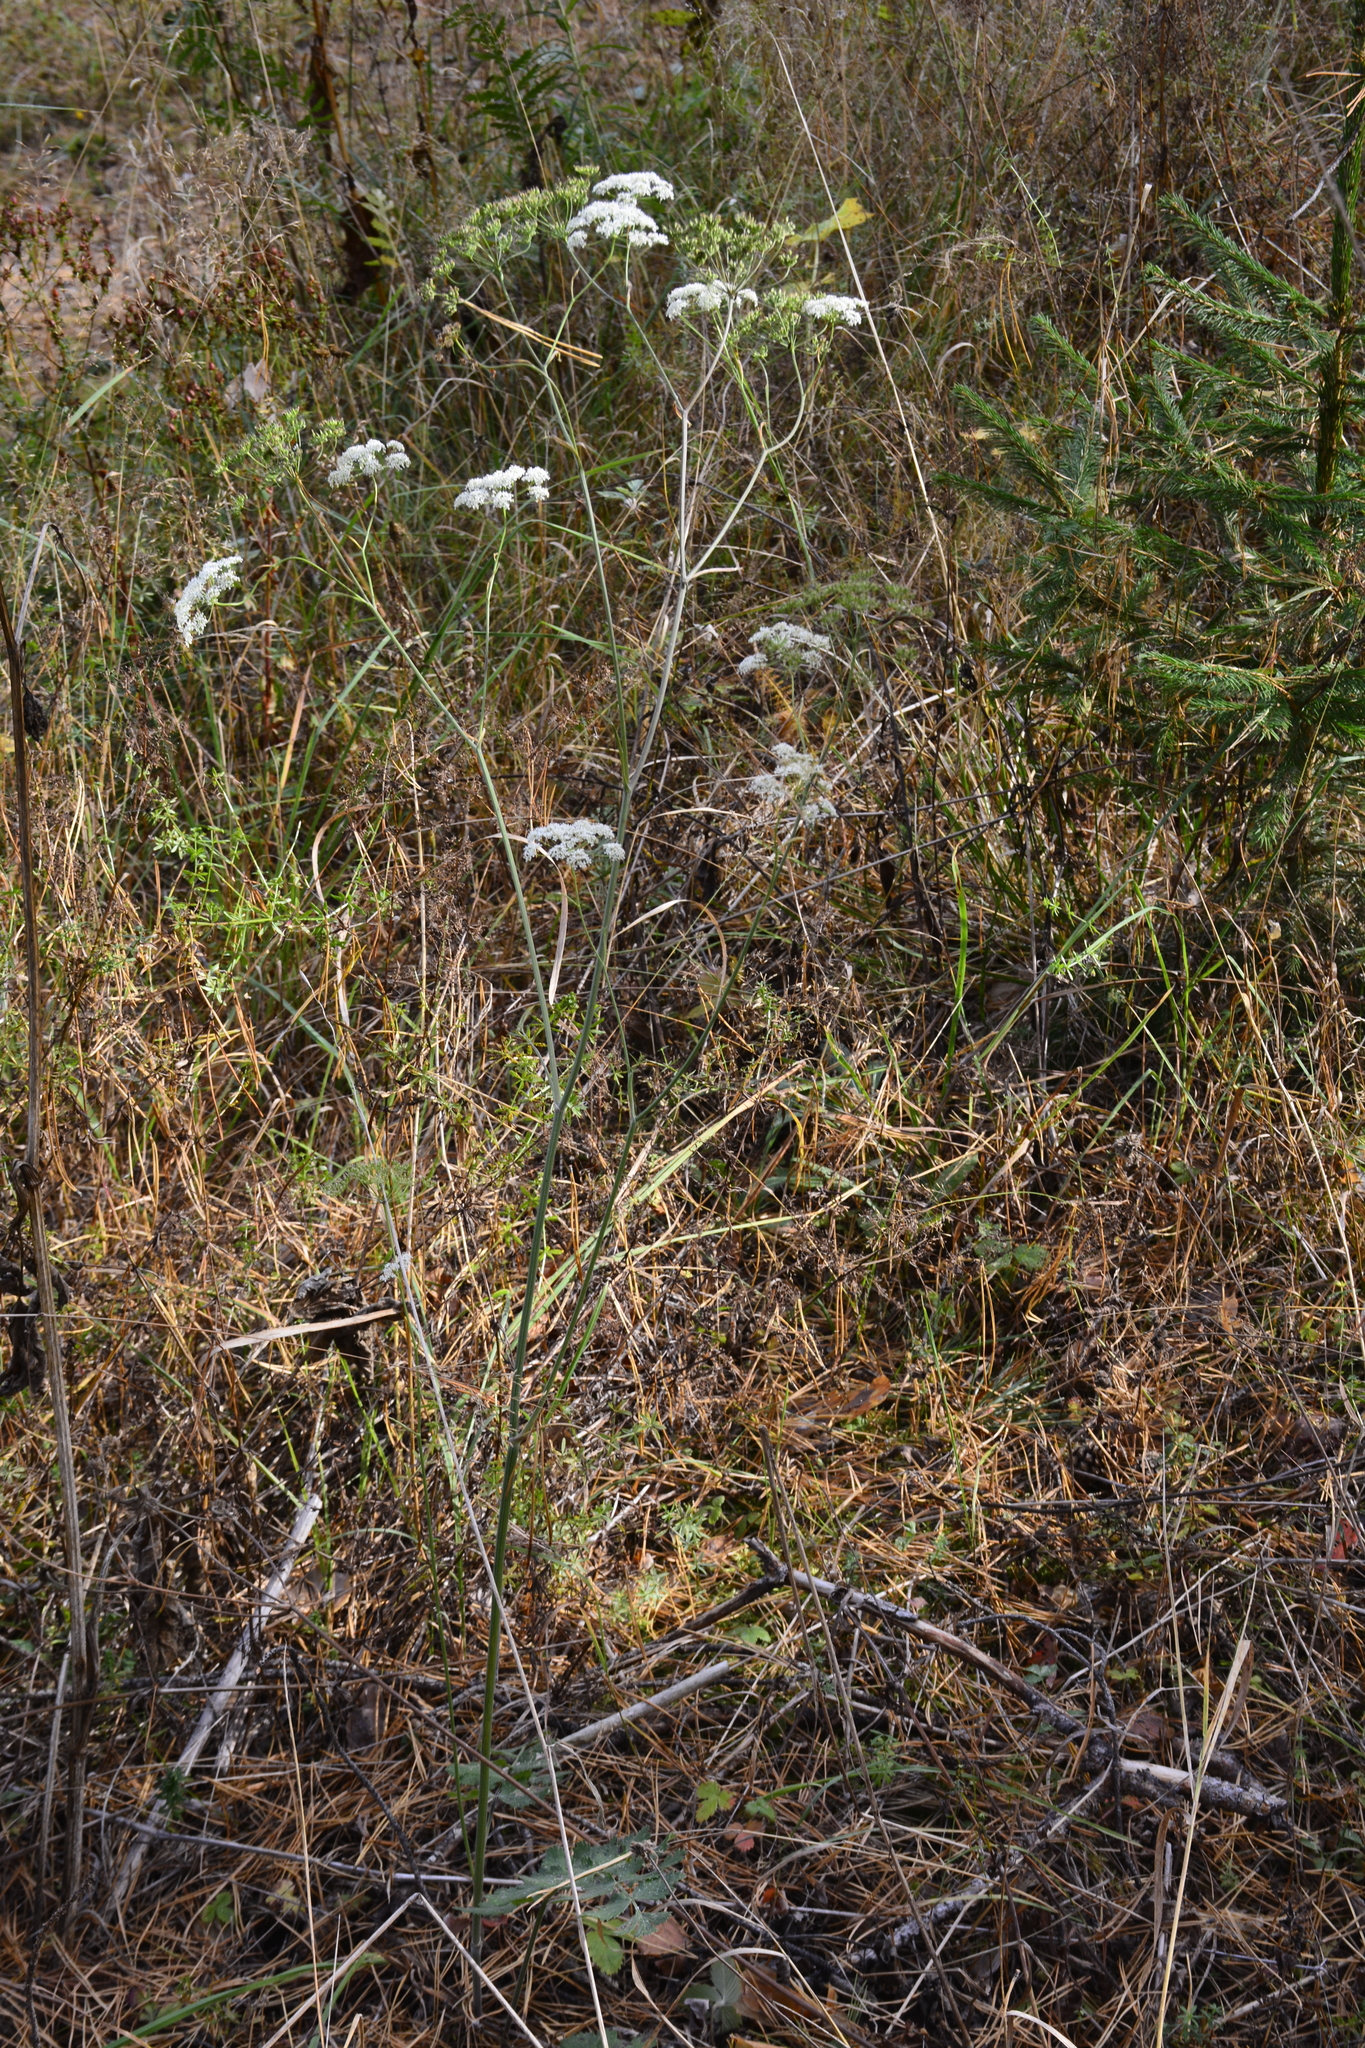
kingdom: Plantae
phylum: Tracheophyta
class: Magnoliopsida
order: Apiales
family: Apiaceae
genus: Pimpinella
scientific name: Pimpinella saxifraga
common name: Burnet-saxifrage
